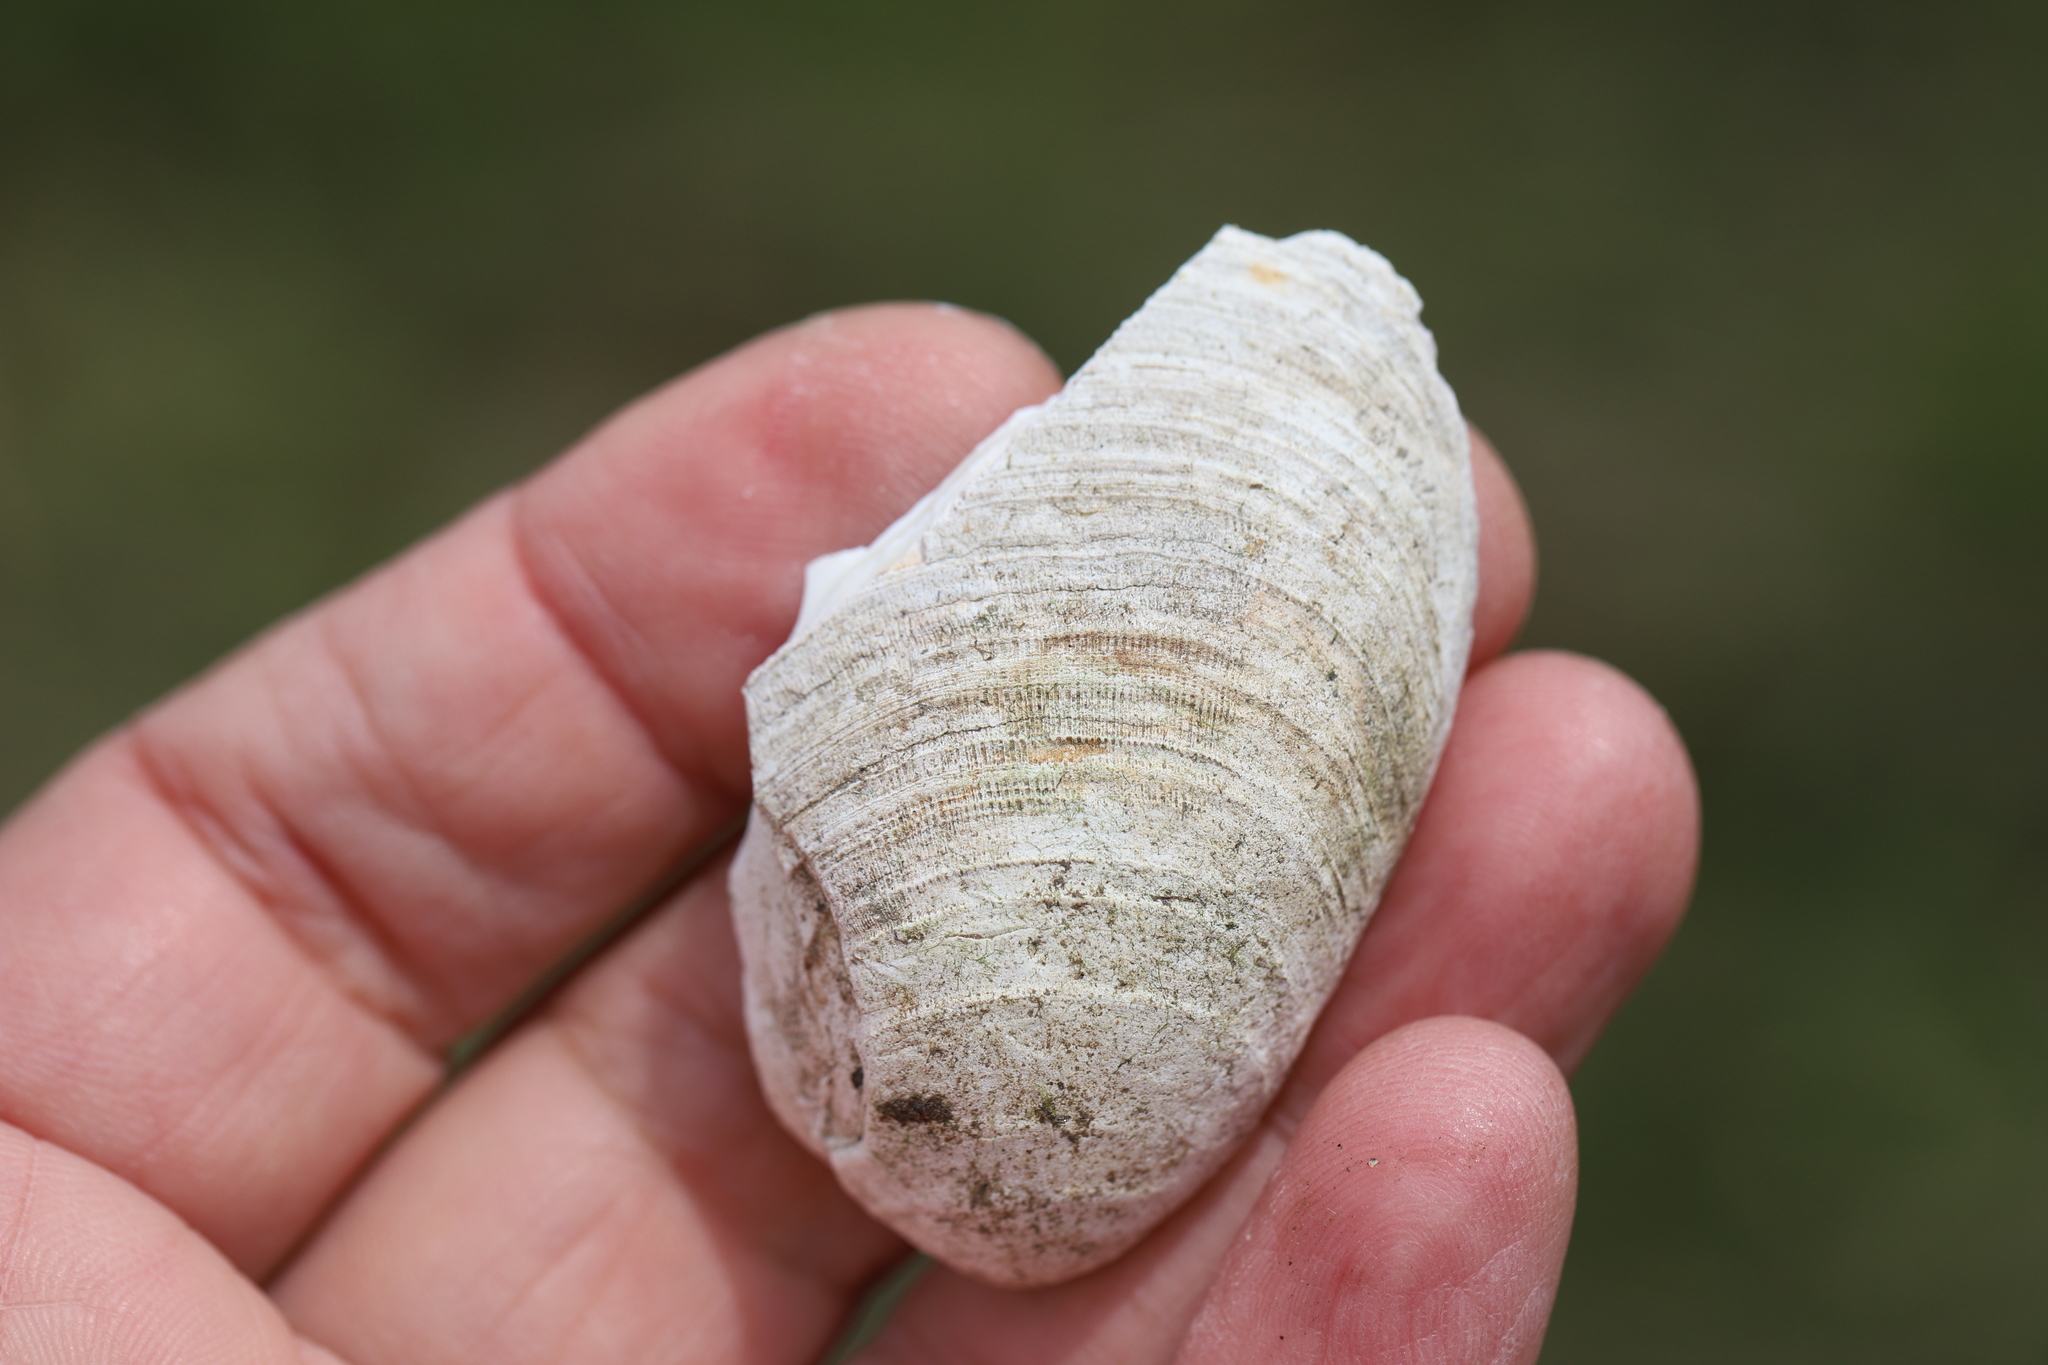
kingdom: Animalia
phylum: Mollusca
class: Bivalvia
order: Venerida
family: Veneridae
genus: Mercenaria
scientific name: Mercenaria mercenaria
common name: American hard-shelled clam
